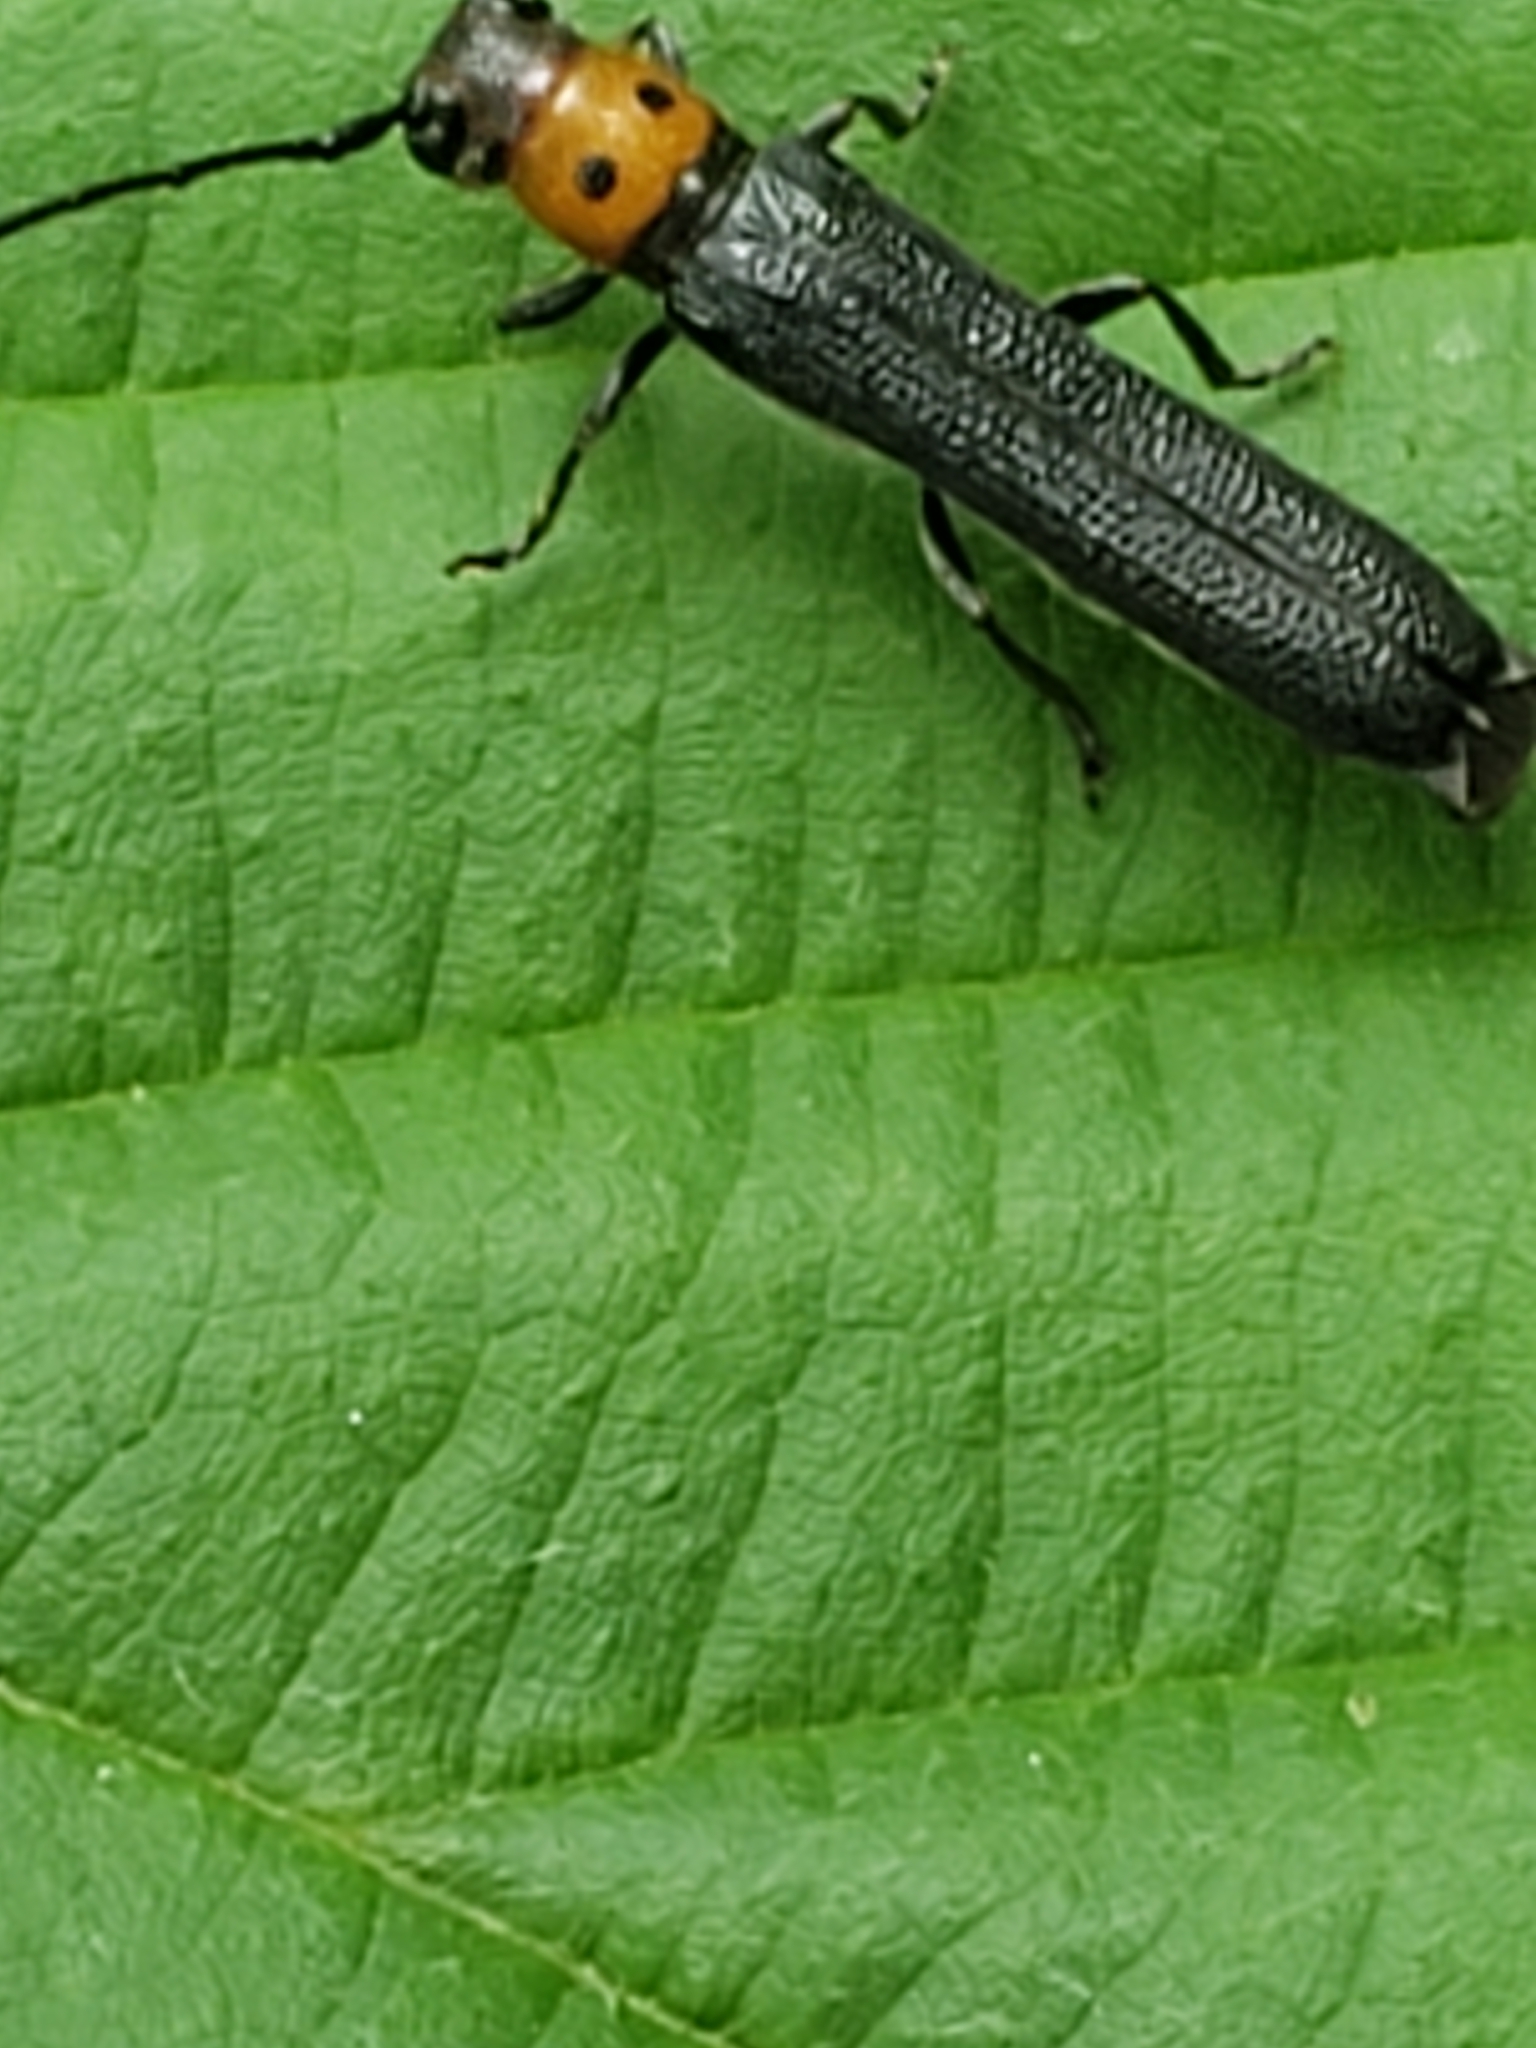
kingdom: Animalia
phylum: Arthropoda
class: Insecta
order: Coleoptera
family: Cerambycidae
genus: Oberea
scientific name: Oberea perspicillata
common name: Raspberry cane borer
